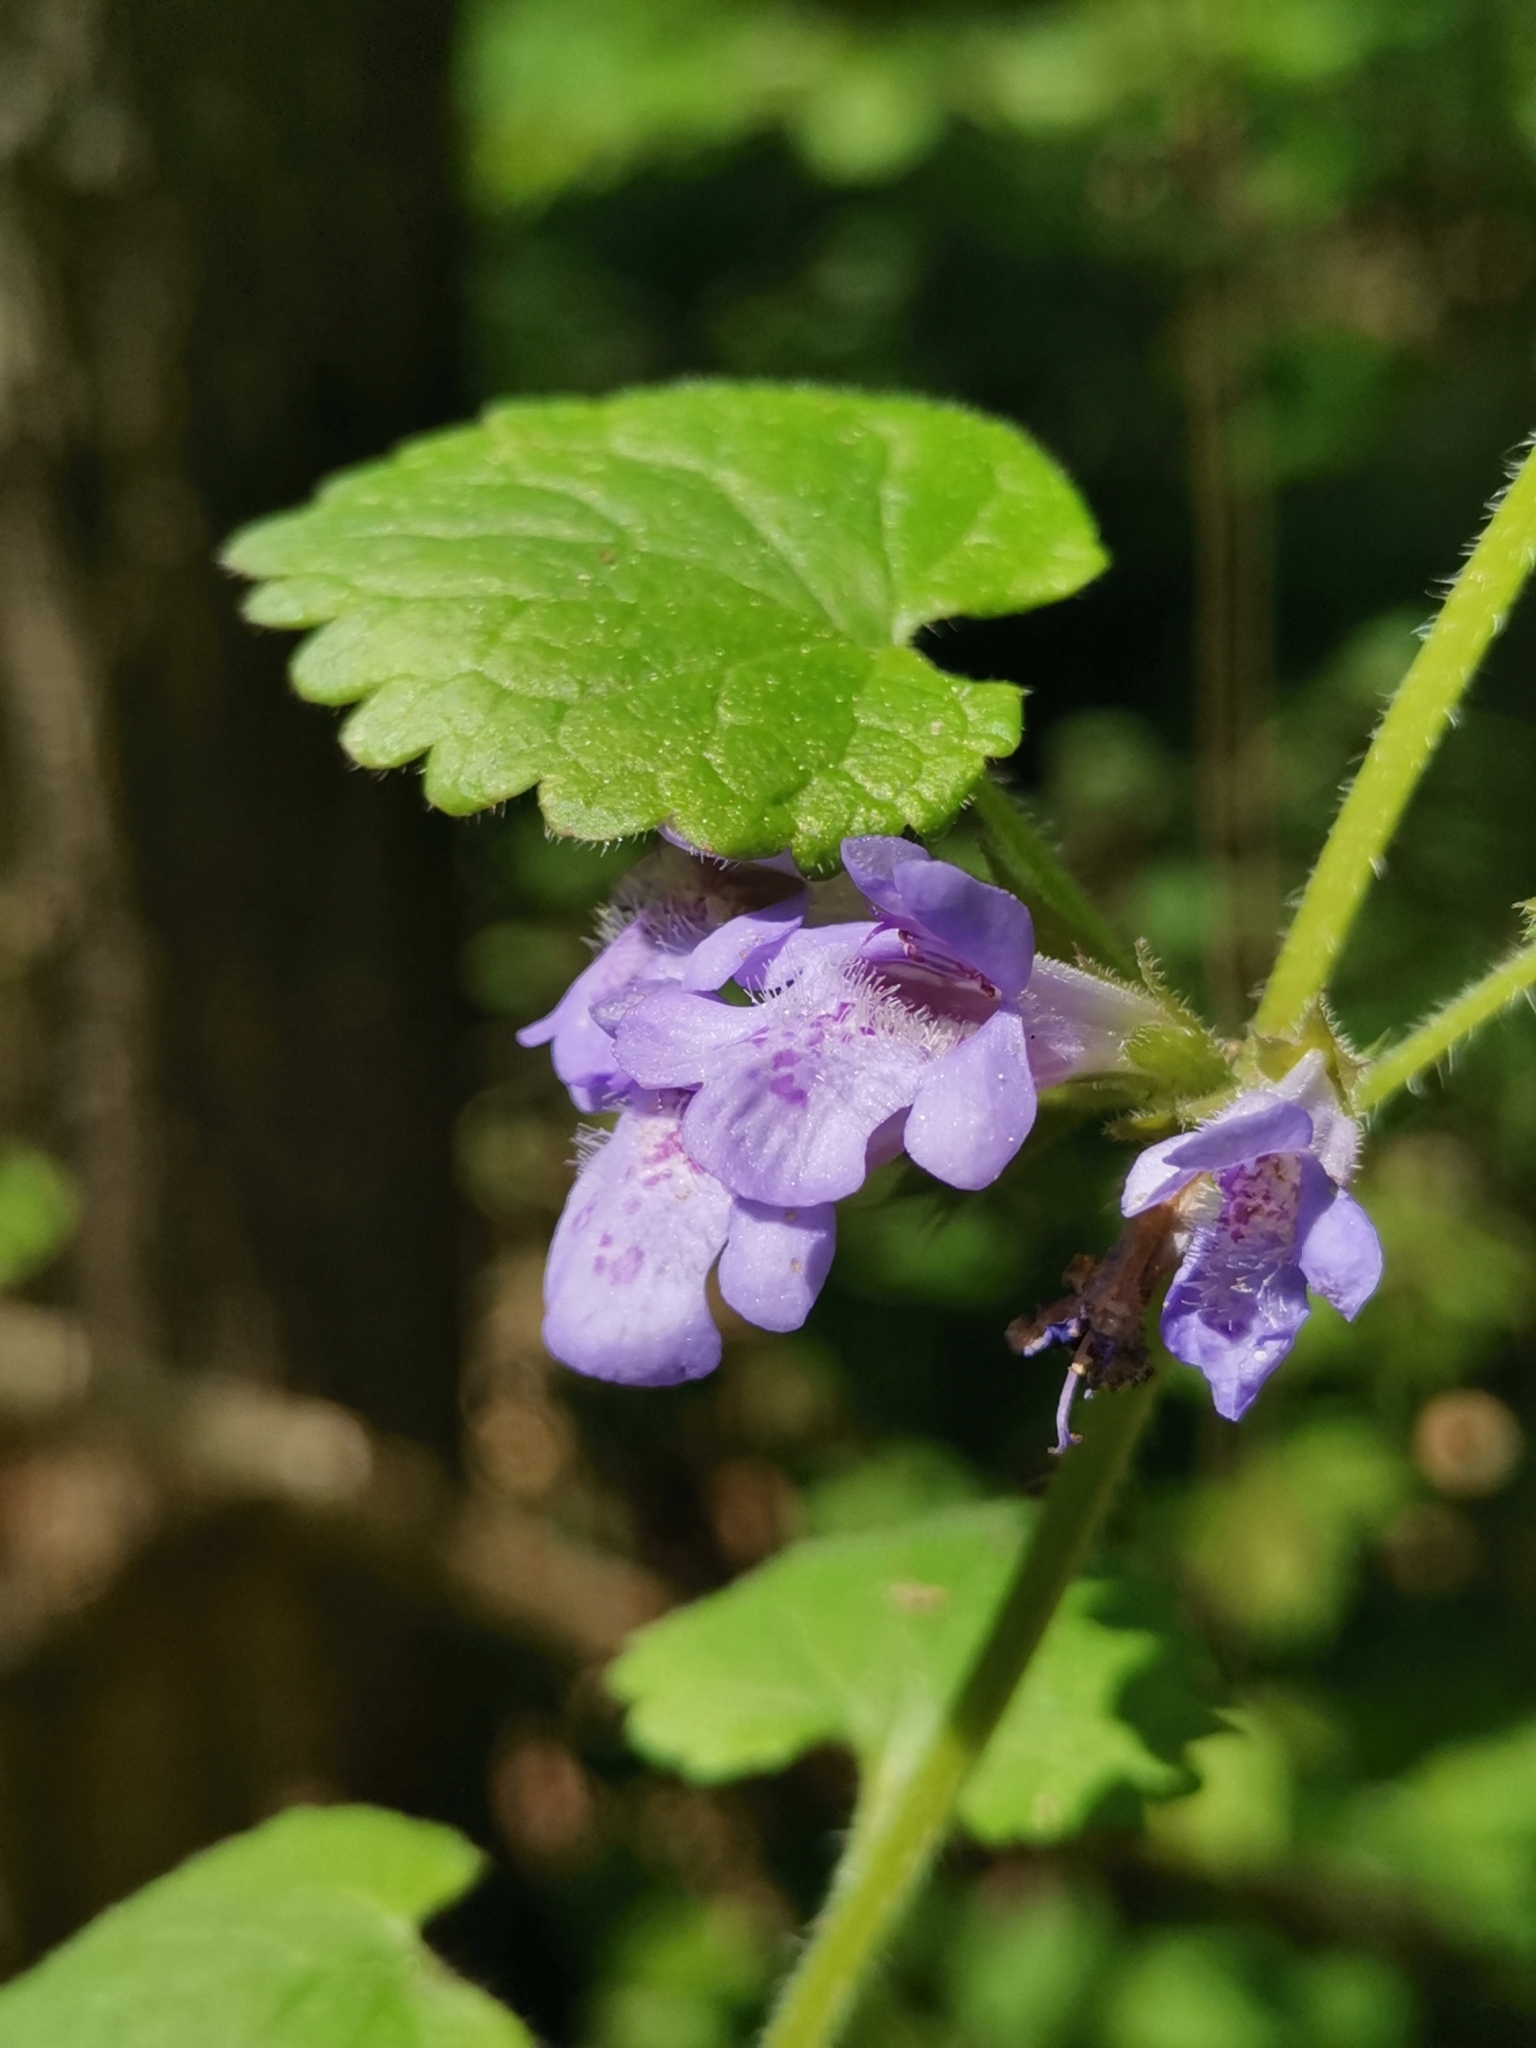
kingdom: Plantae
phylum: Tracheophyta
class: Magnoliopsida
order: Lamiales
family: Lamiaceae
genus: Glechoma
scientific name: Glechoma hirsuta
